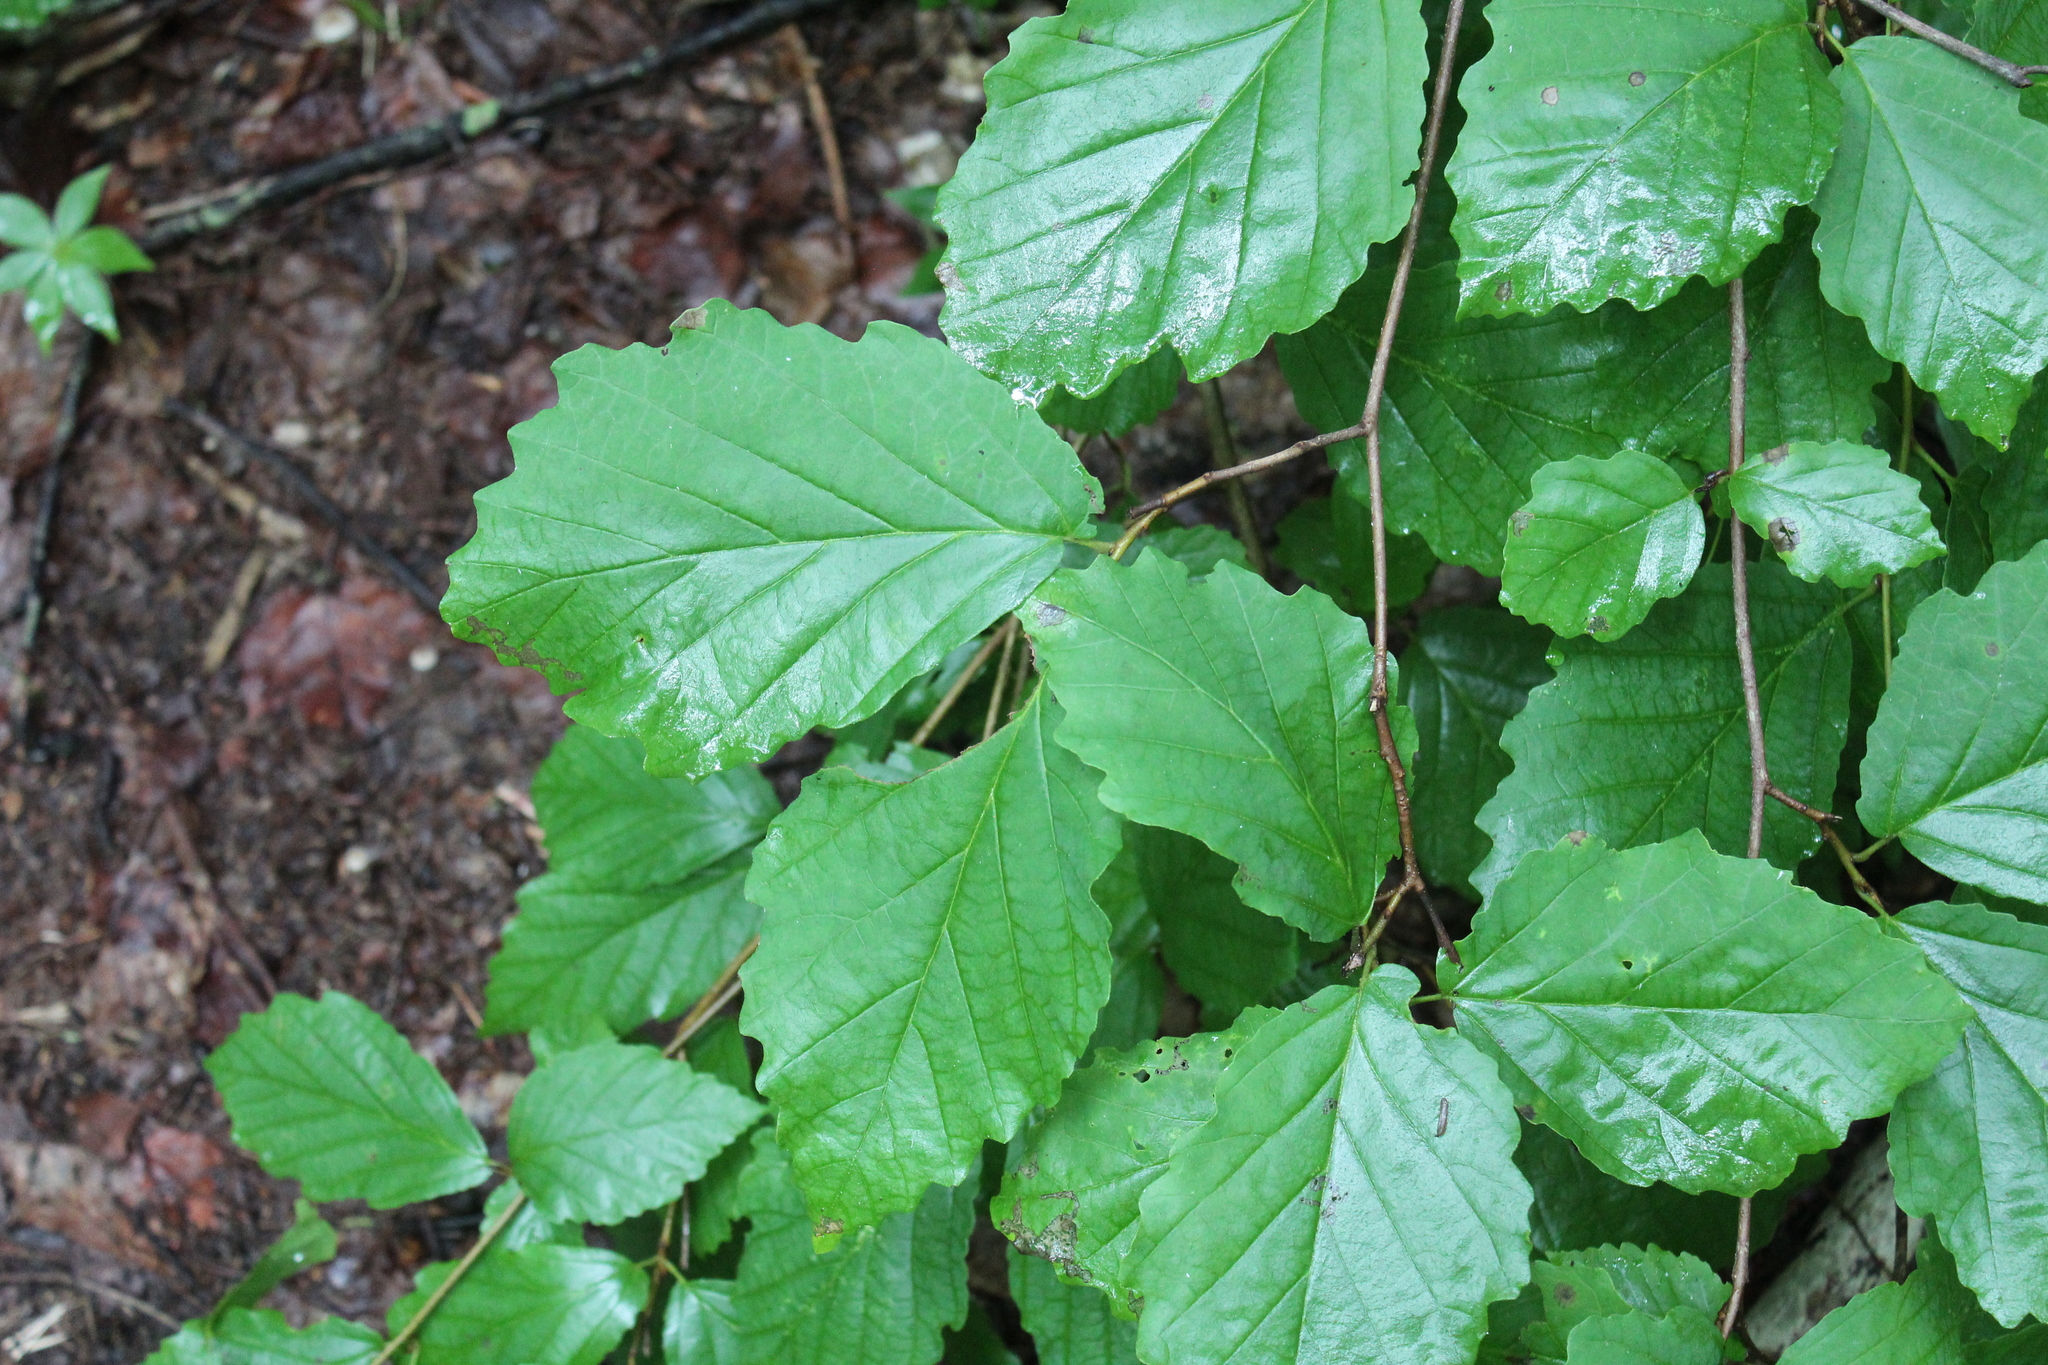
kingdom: Plantae
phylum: Tracheophyta
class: Magnoliopsida
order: Saxifragales
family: Hamamelidaceae
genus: Hamamelis
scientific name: Hamamelis virginiana
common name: Witch-hazel
